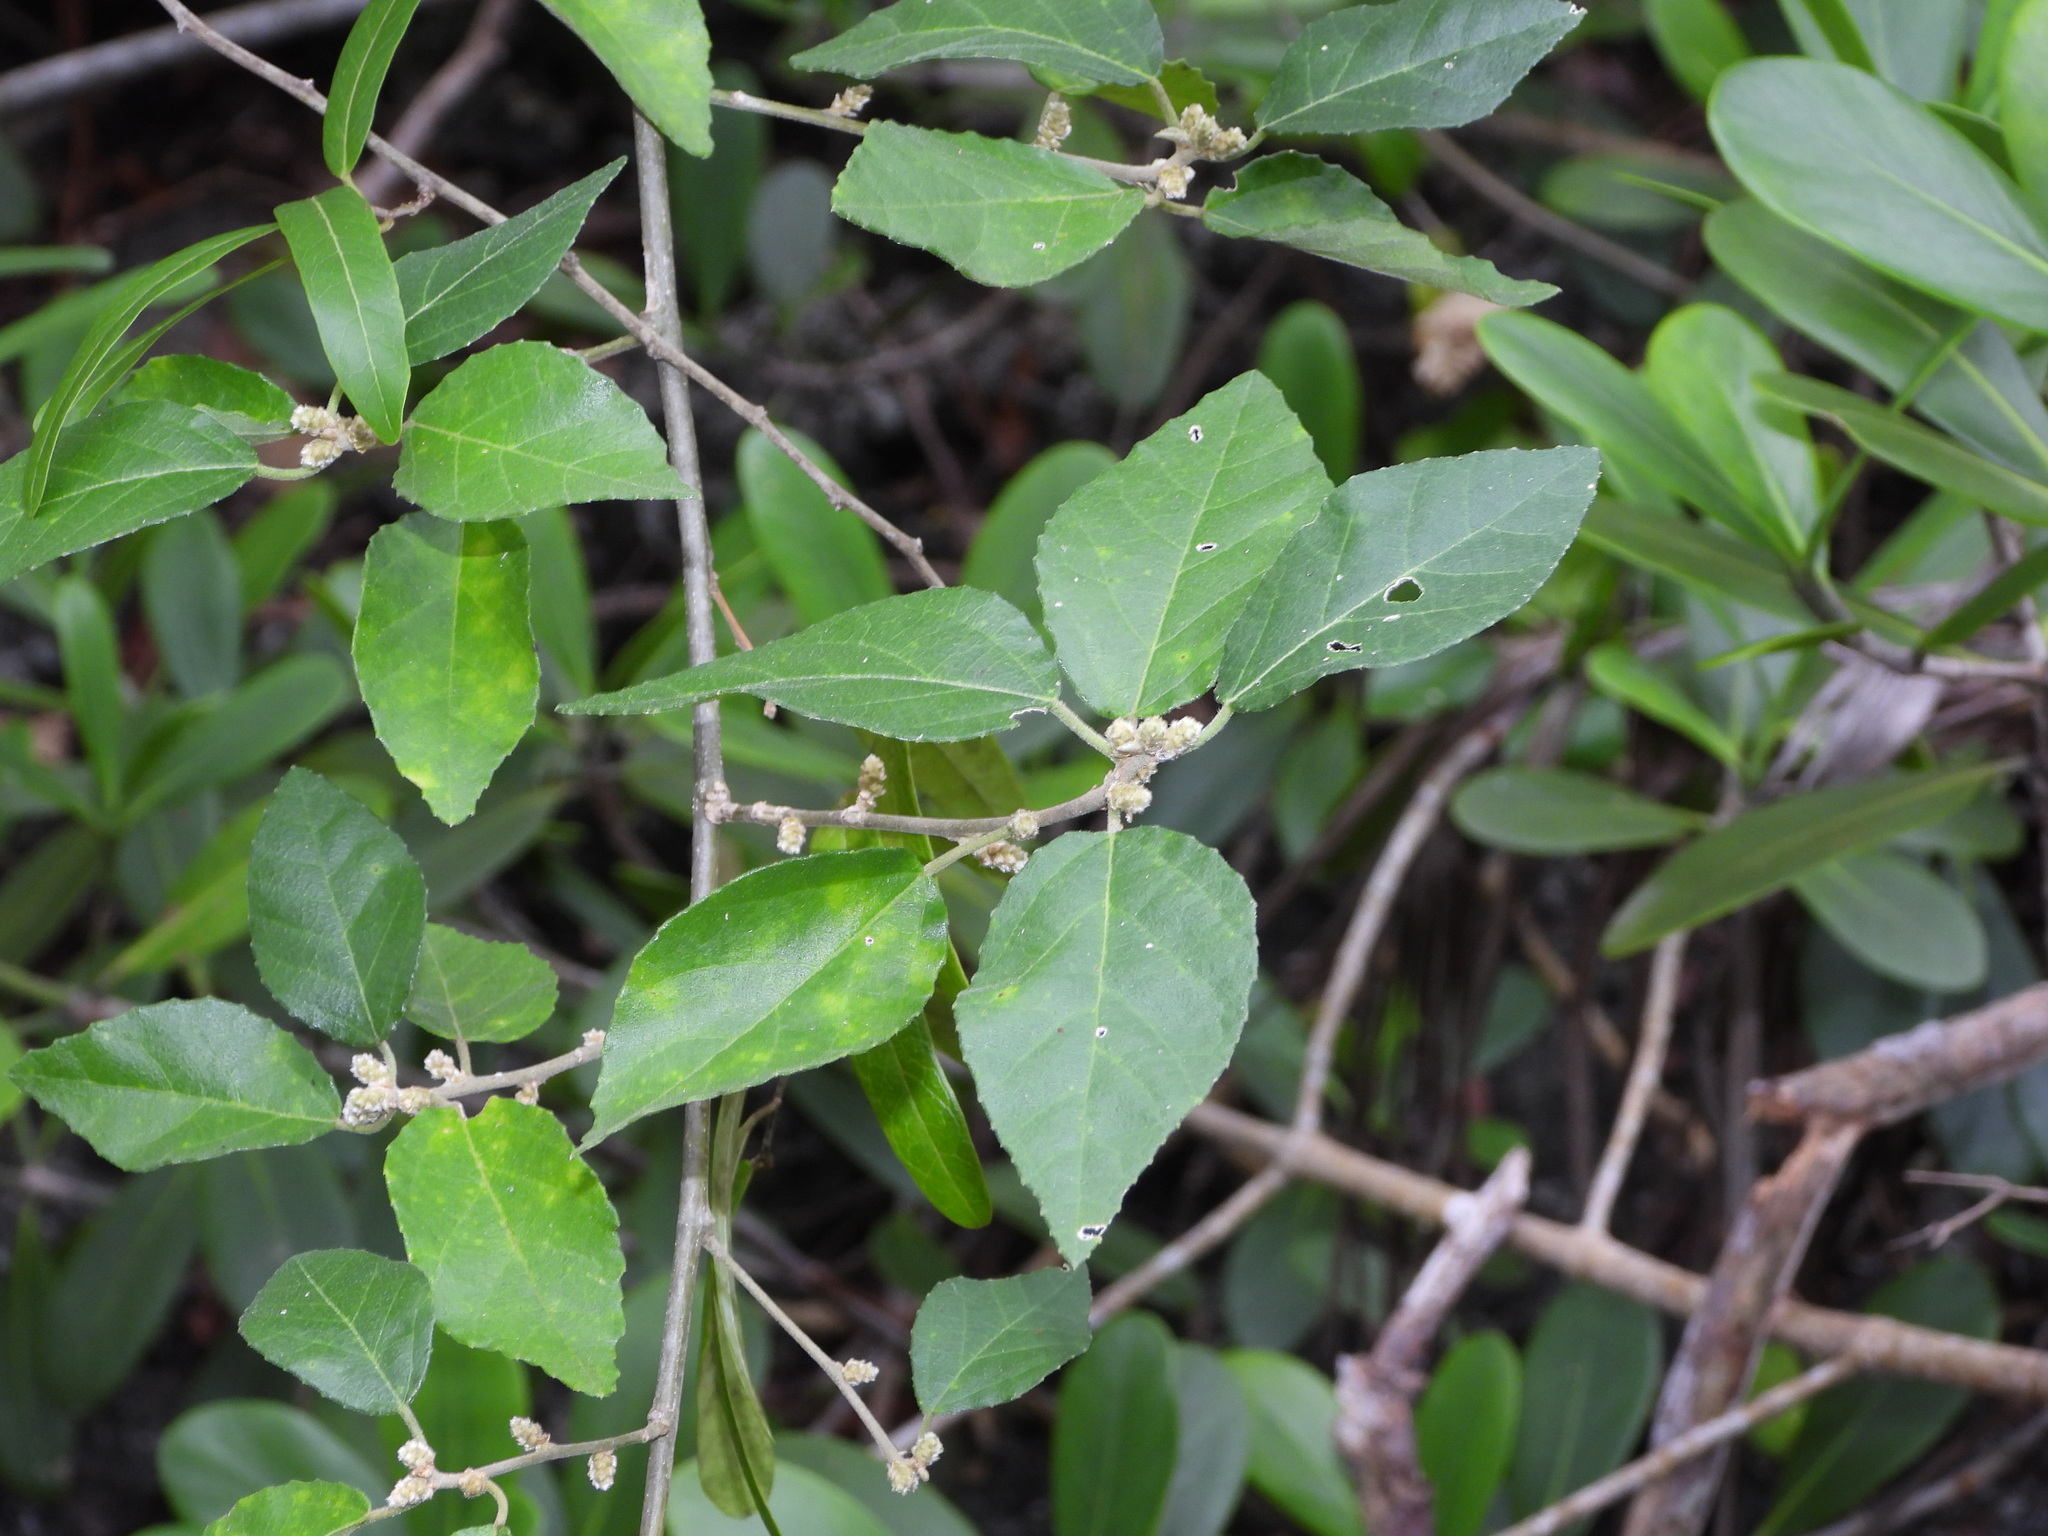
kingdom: Plantae
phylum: Tracheophyta
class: Magnoliopsida
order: Malpighiales
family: Euphorbiaceae
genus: Bernardia
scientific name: Bernardia dichotoma
